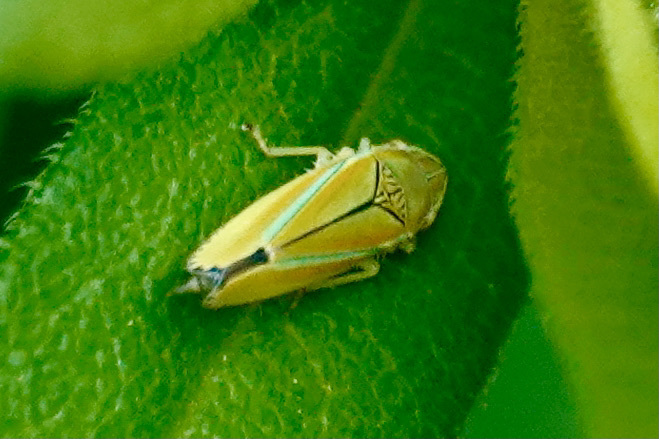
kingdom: Animalia
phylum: Arthropoda
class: Insecta
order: Hemiptera
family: Cicadellidae
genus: Graphocephala
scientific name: Graphocephala versuta
